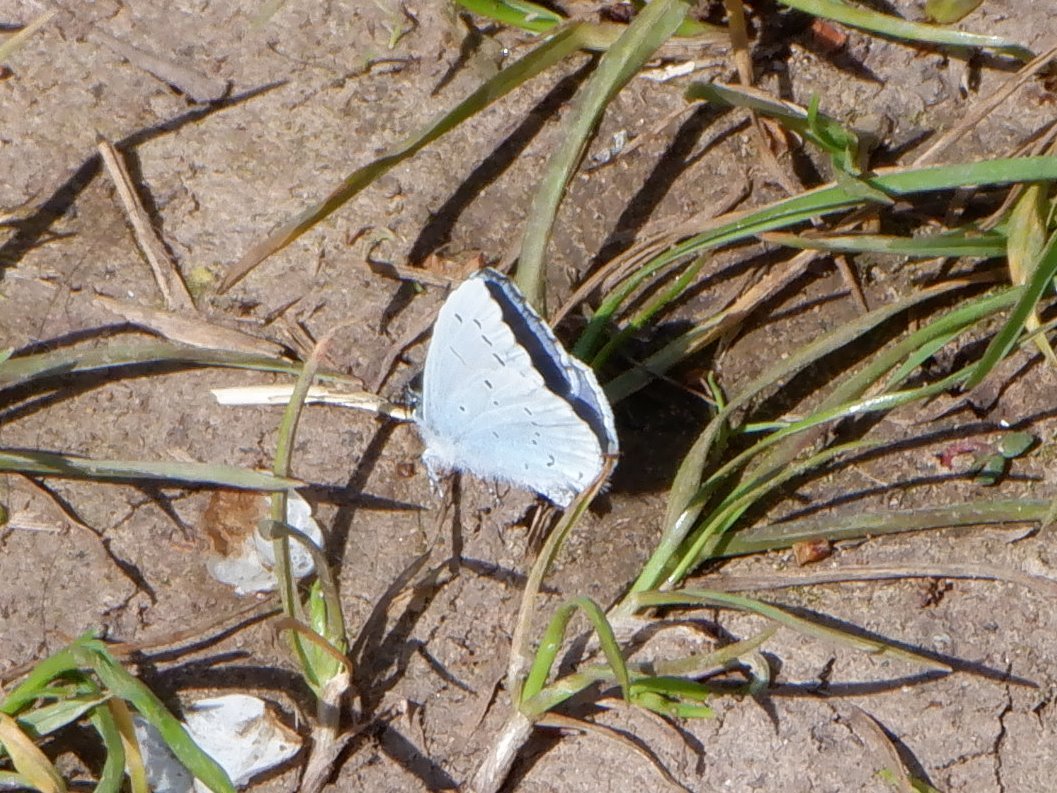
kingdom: Animalia
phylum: Arthropoda
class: Insecta
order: Lepidoptera
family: Lycaenidae
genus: Celastrina
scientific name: Celastrina argiolus
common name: Holly blue
